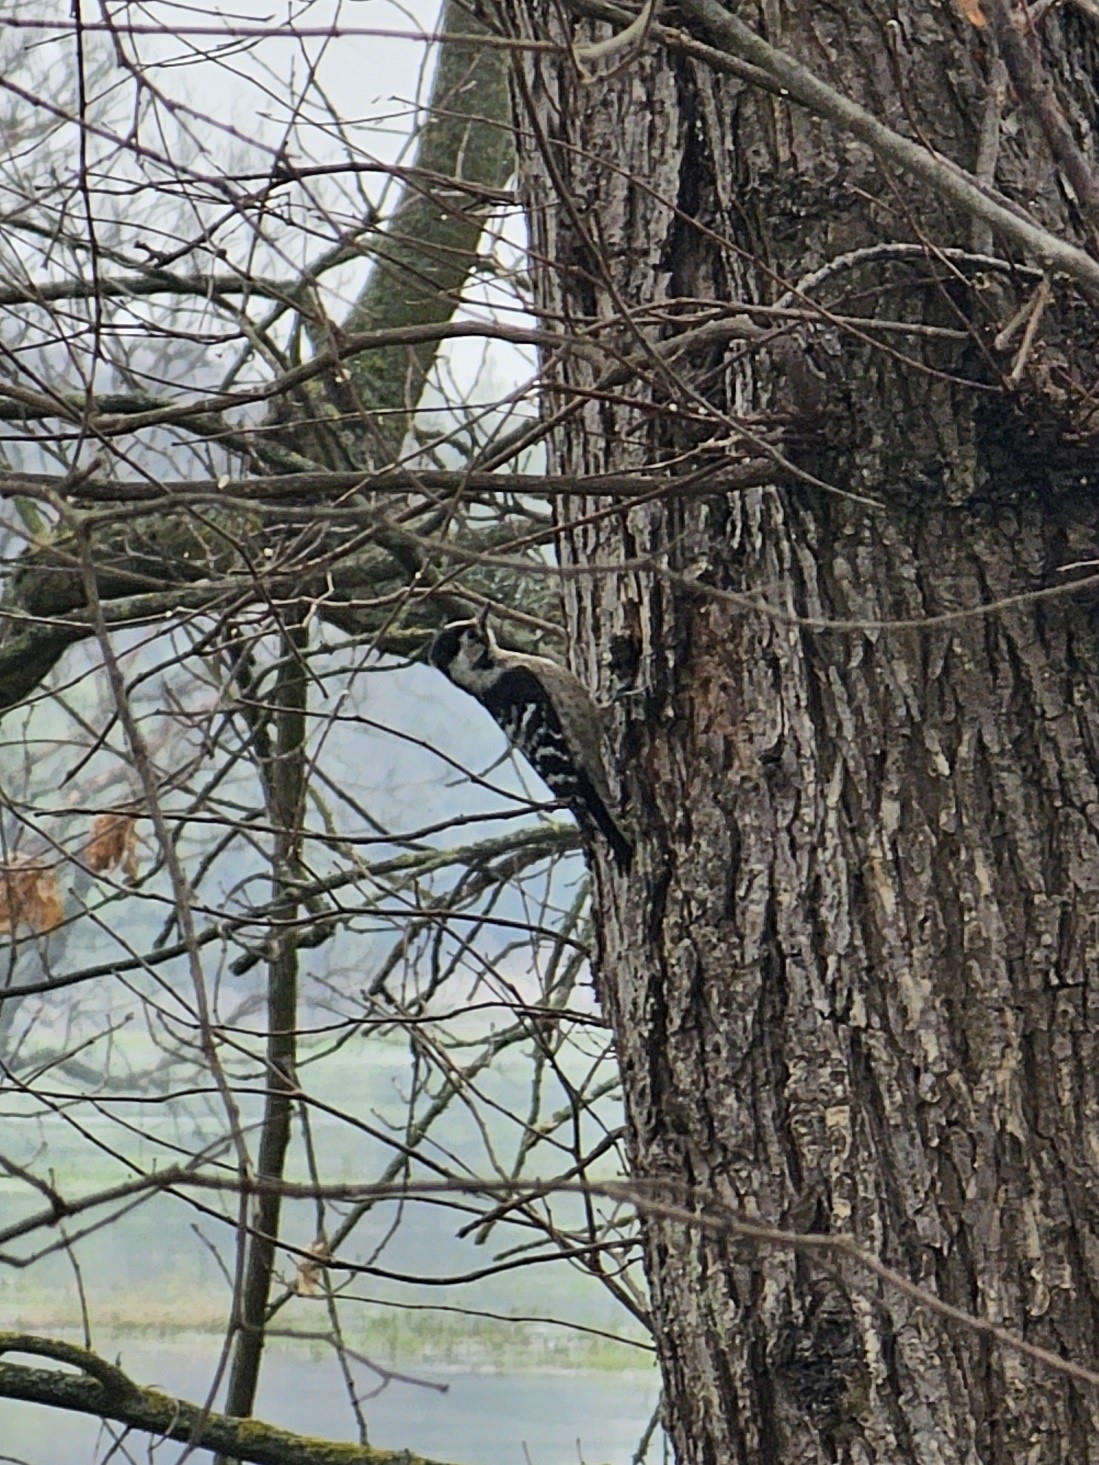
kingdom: Animalia
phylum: Chordata
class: Aves
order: Piciformes
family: Picidae
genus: Dryobates
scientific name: Dryobates minor
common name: Lesser spotted woodpecker
